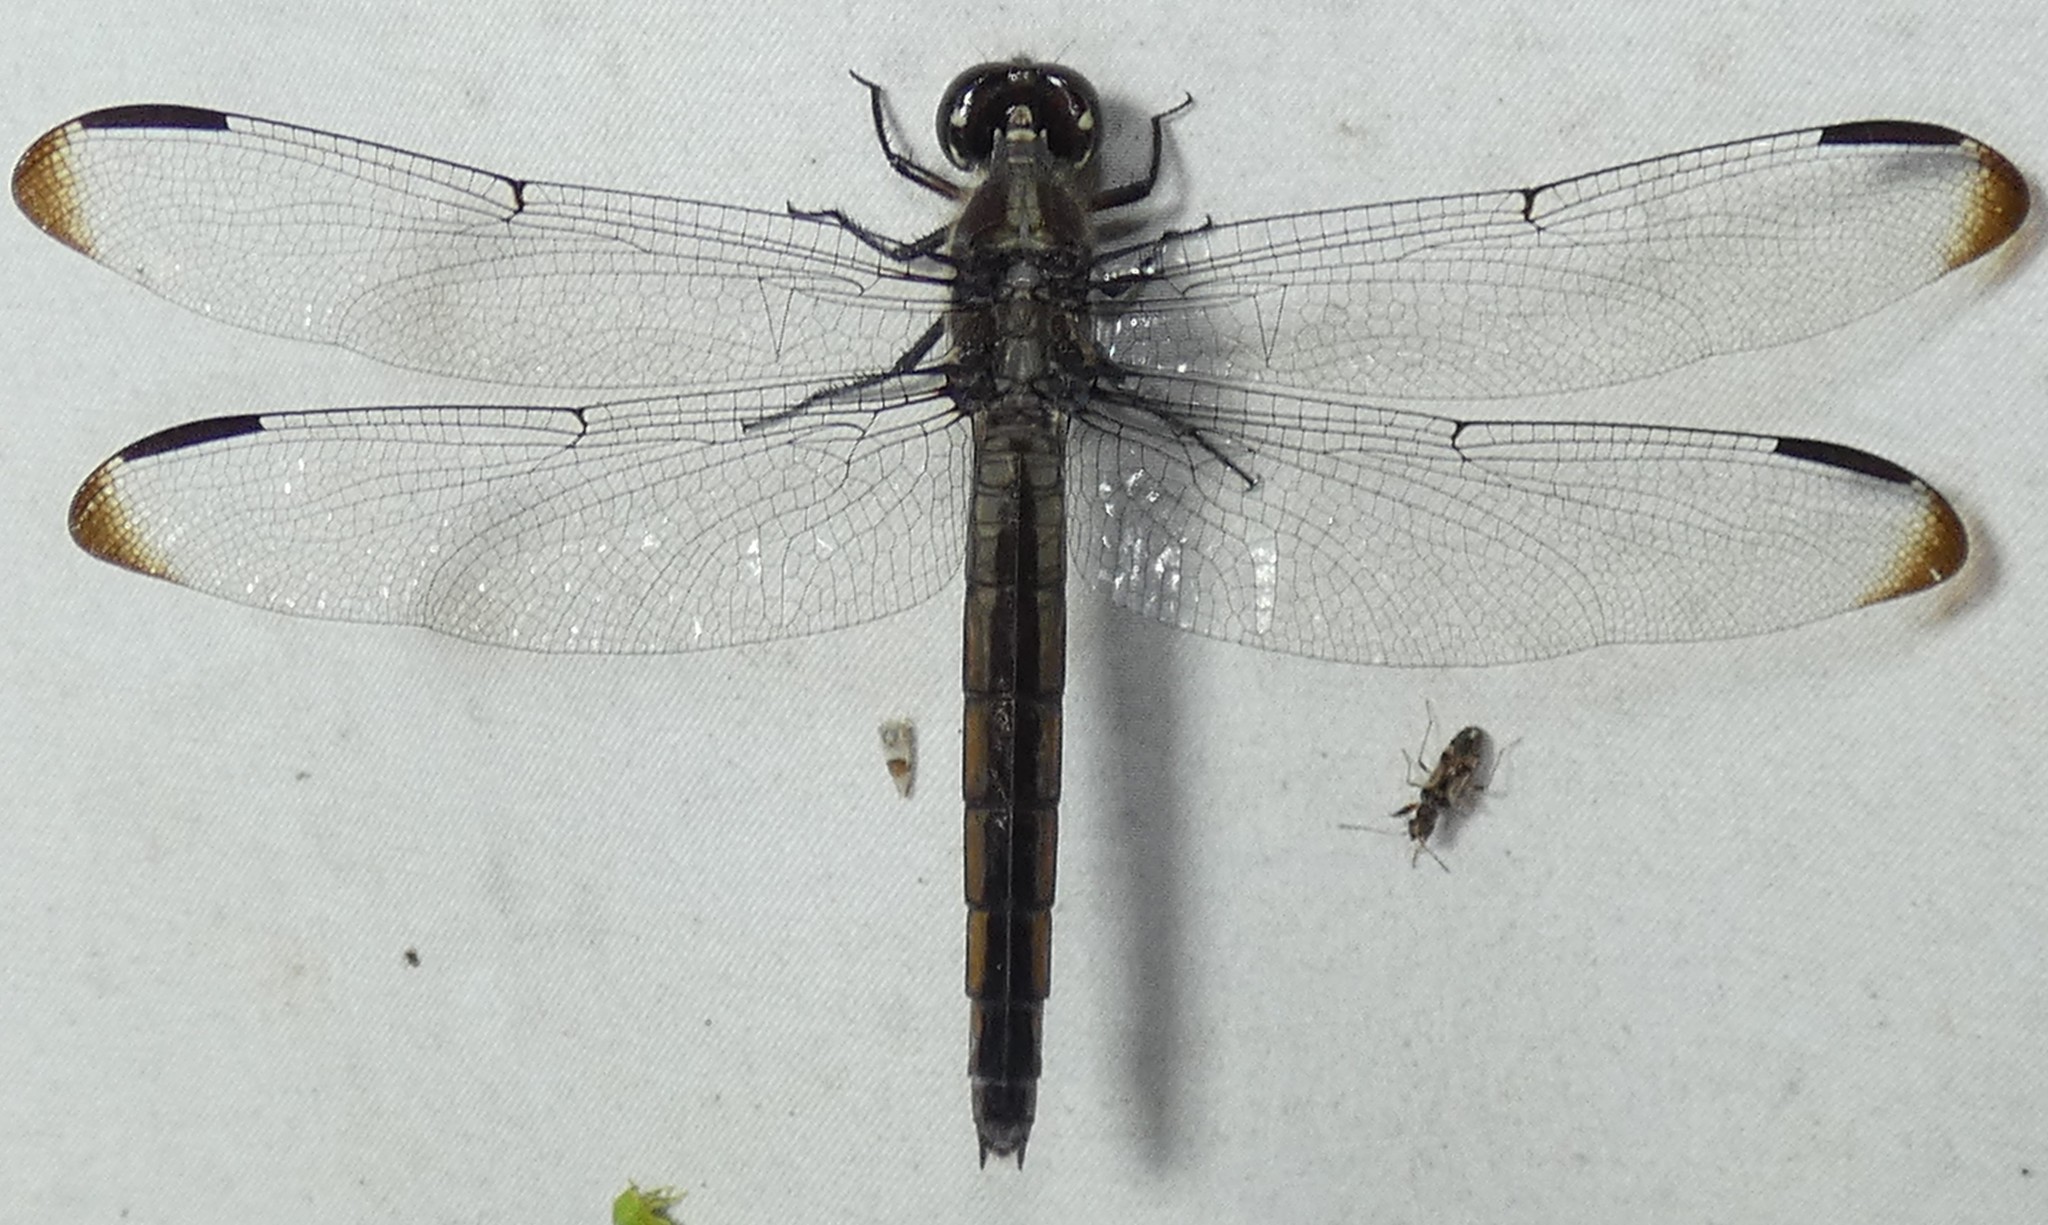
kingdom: Animalia
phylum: Arthropoda
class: Insecta
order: Odonata
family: Libellulidae
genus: Libellula
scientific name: Libellula incesta
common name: Slaty skimmer
